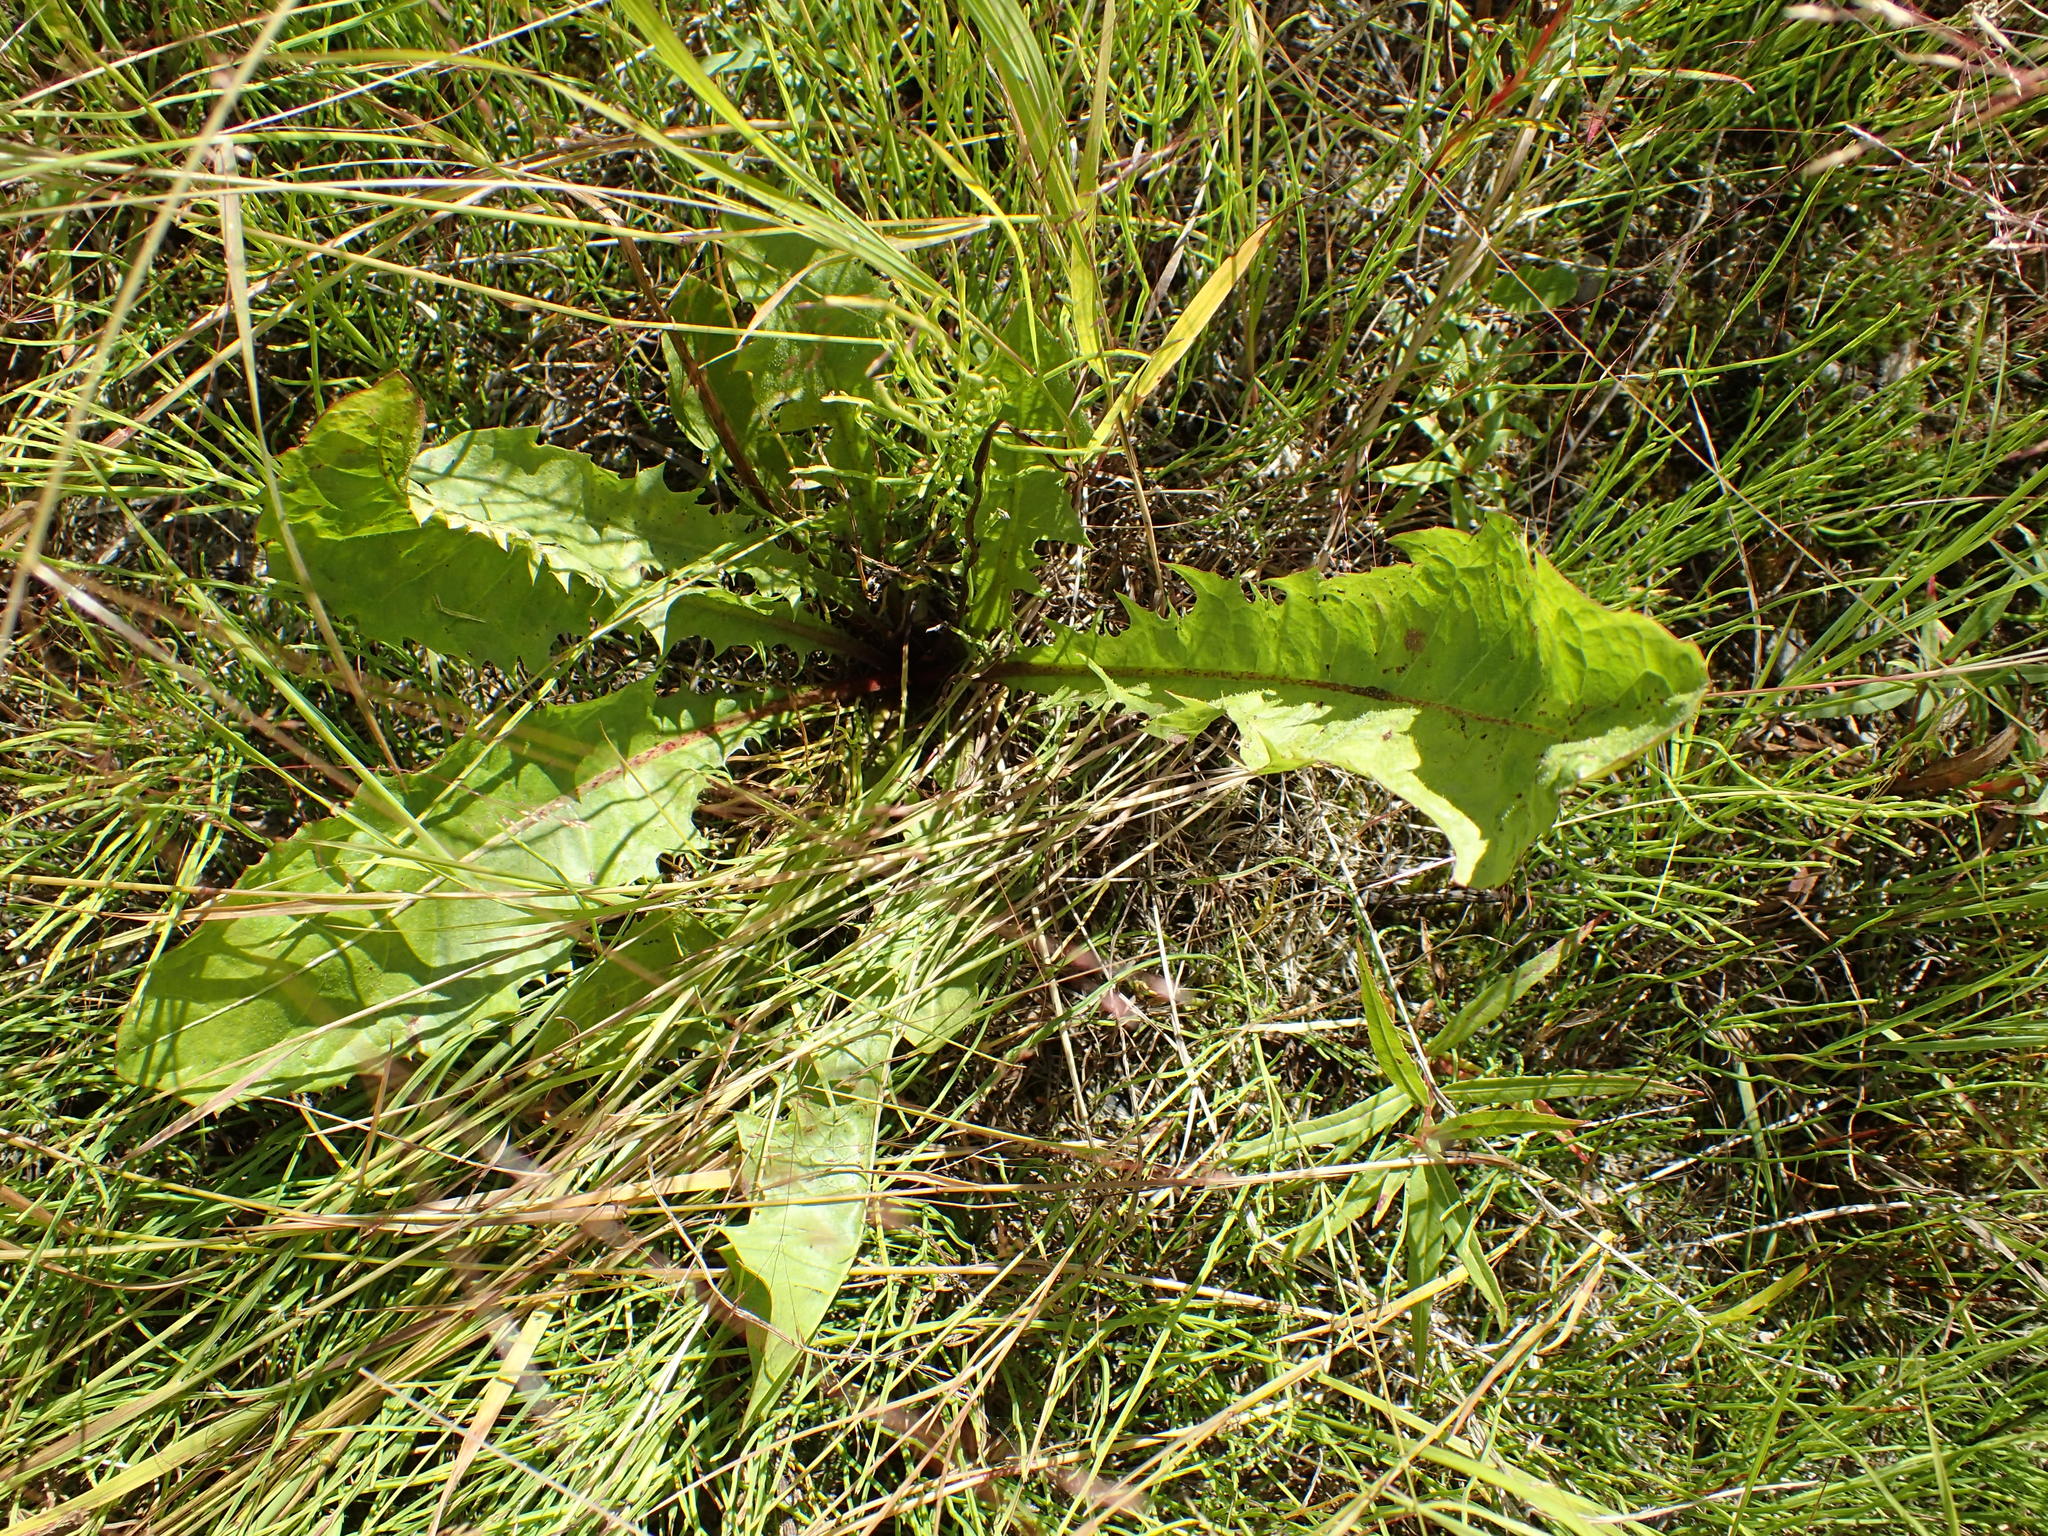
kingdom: Plantae
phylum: Tracheophyta
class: Magnoliopsida
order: Asterales
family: Asteraceae
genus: Taraxacum
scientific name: Taraxacum officinale
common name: Common dandelion
